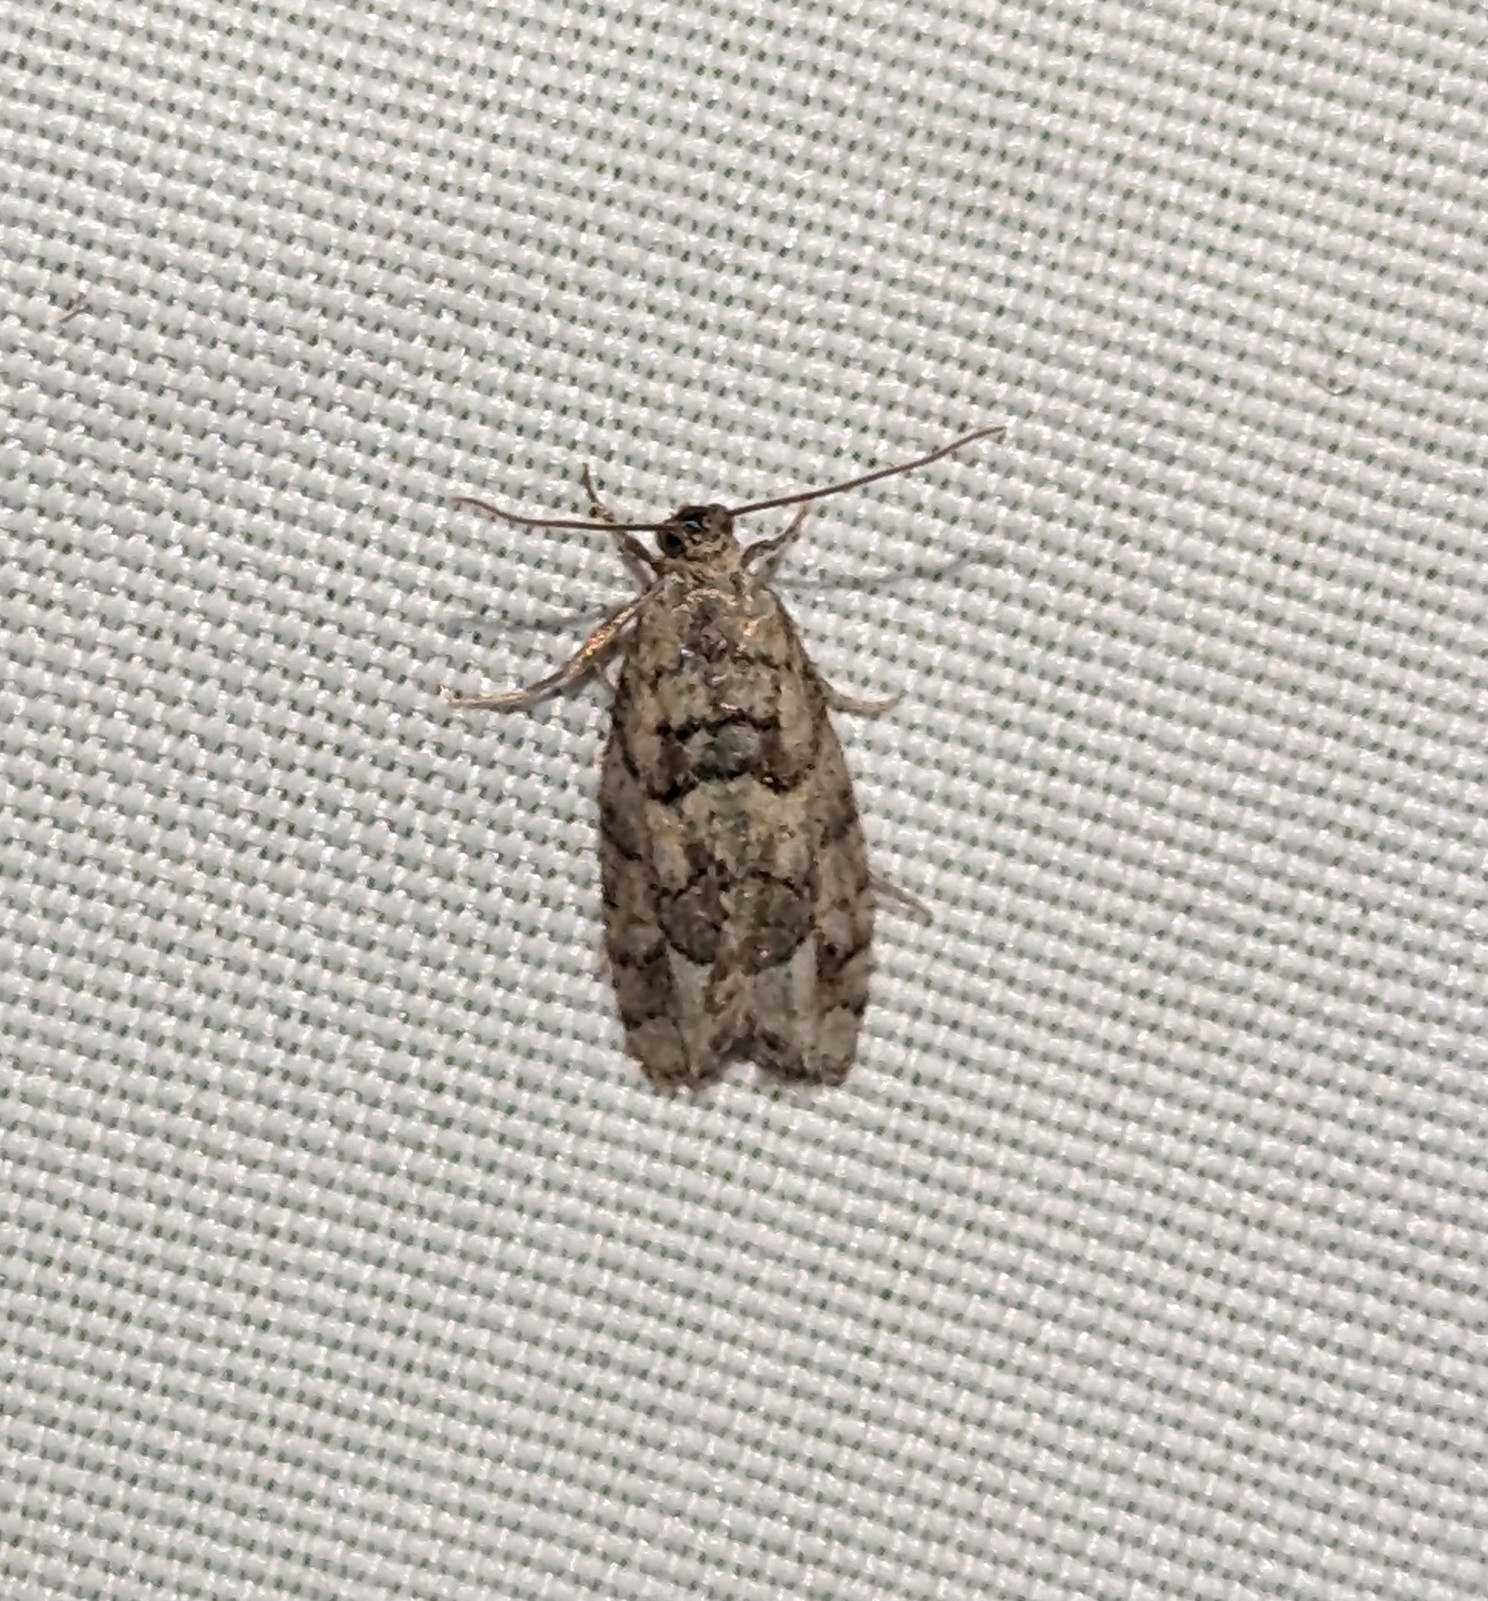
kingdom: Animalia
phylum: Arthropoda
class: Insecta
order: Lepidoptera
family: Tortricidae
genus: Epinotia
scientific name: Epinotia subviridis
